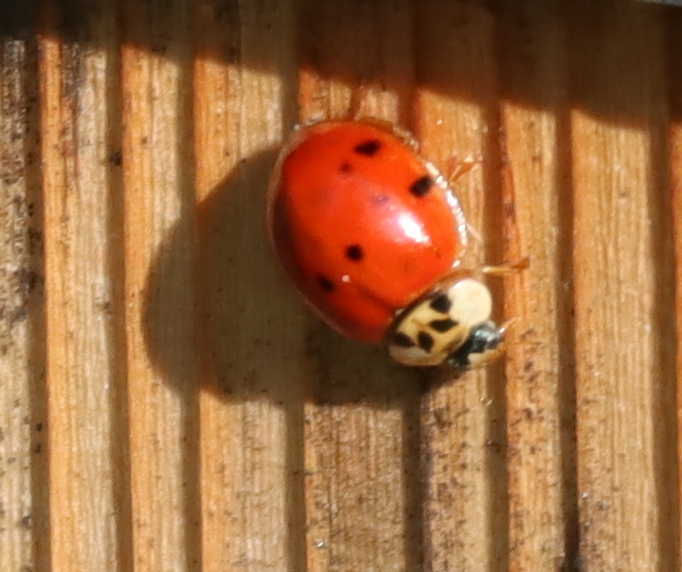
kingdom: Animalia
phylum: Arthropoda
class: Insecta
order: Coleoptera
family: Coccinellidae
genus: Harmonia
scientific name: Harmonia axyridis
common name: Harlequin ladybird
